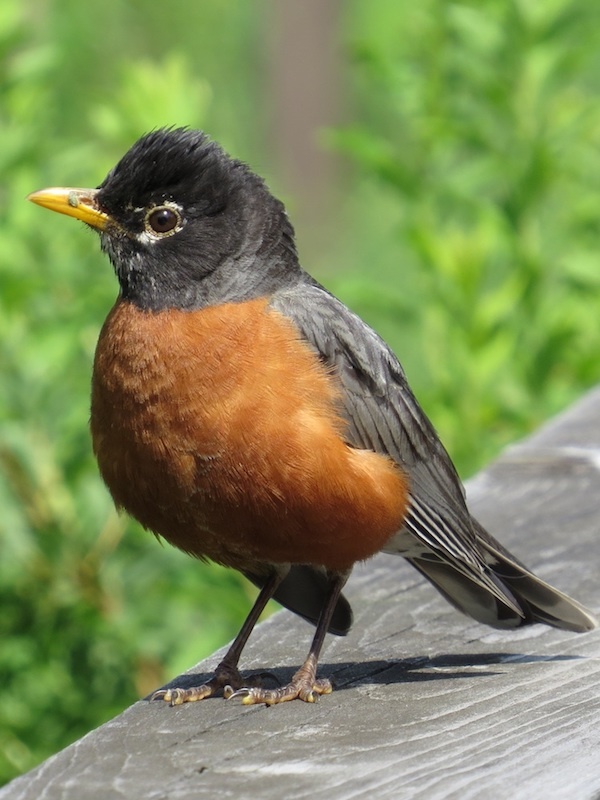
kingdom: Animalia
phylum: Chordata
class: Aves
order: Passeriformes
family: Turdidae
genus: Turdus
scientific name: Turdus migratorius
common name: American robin
